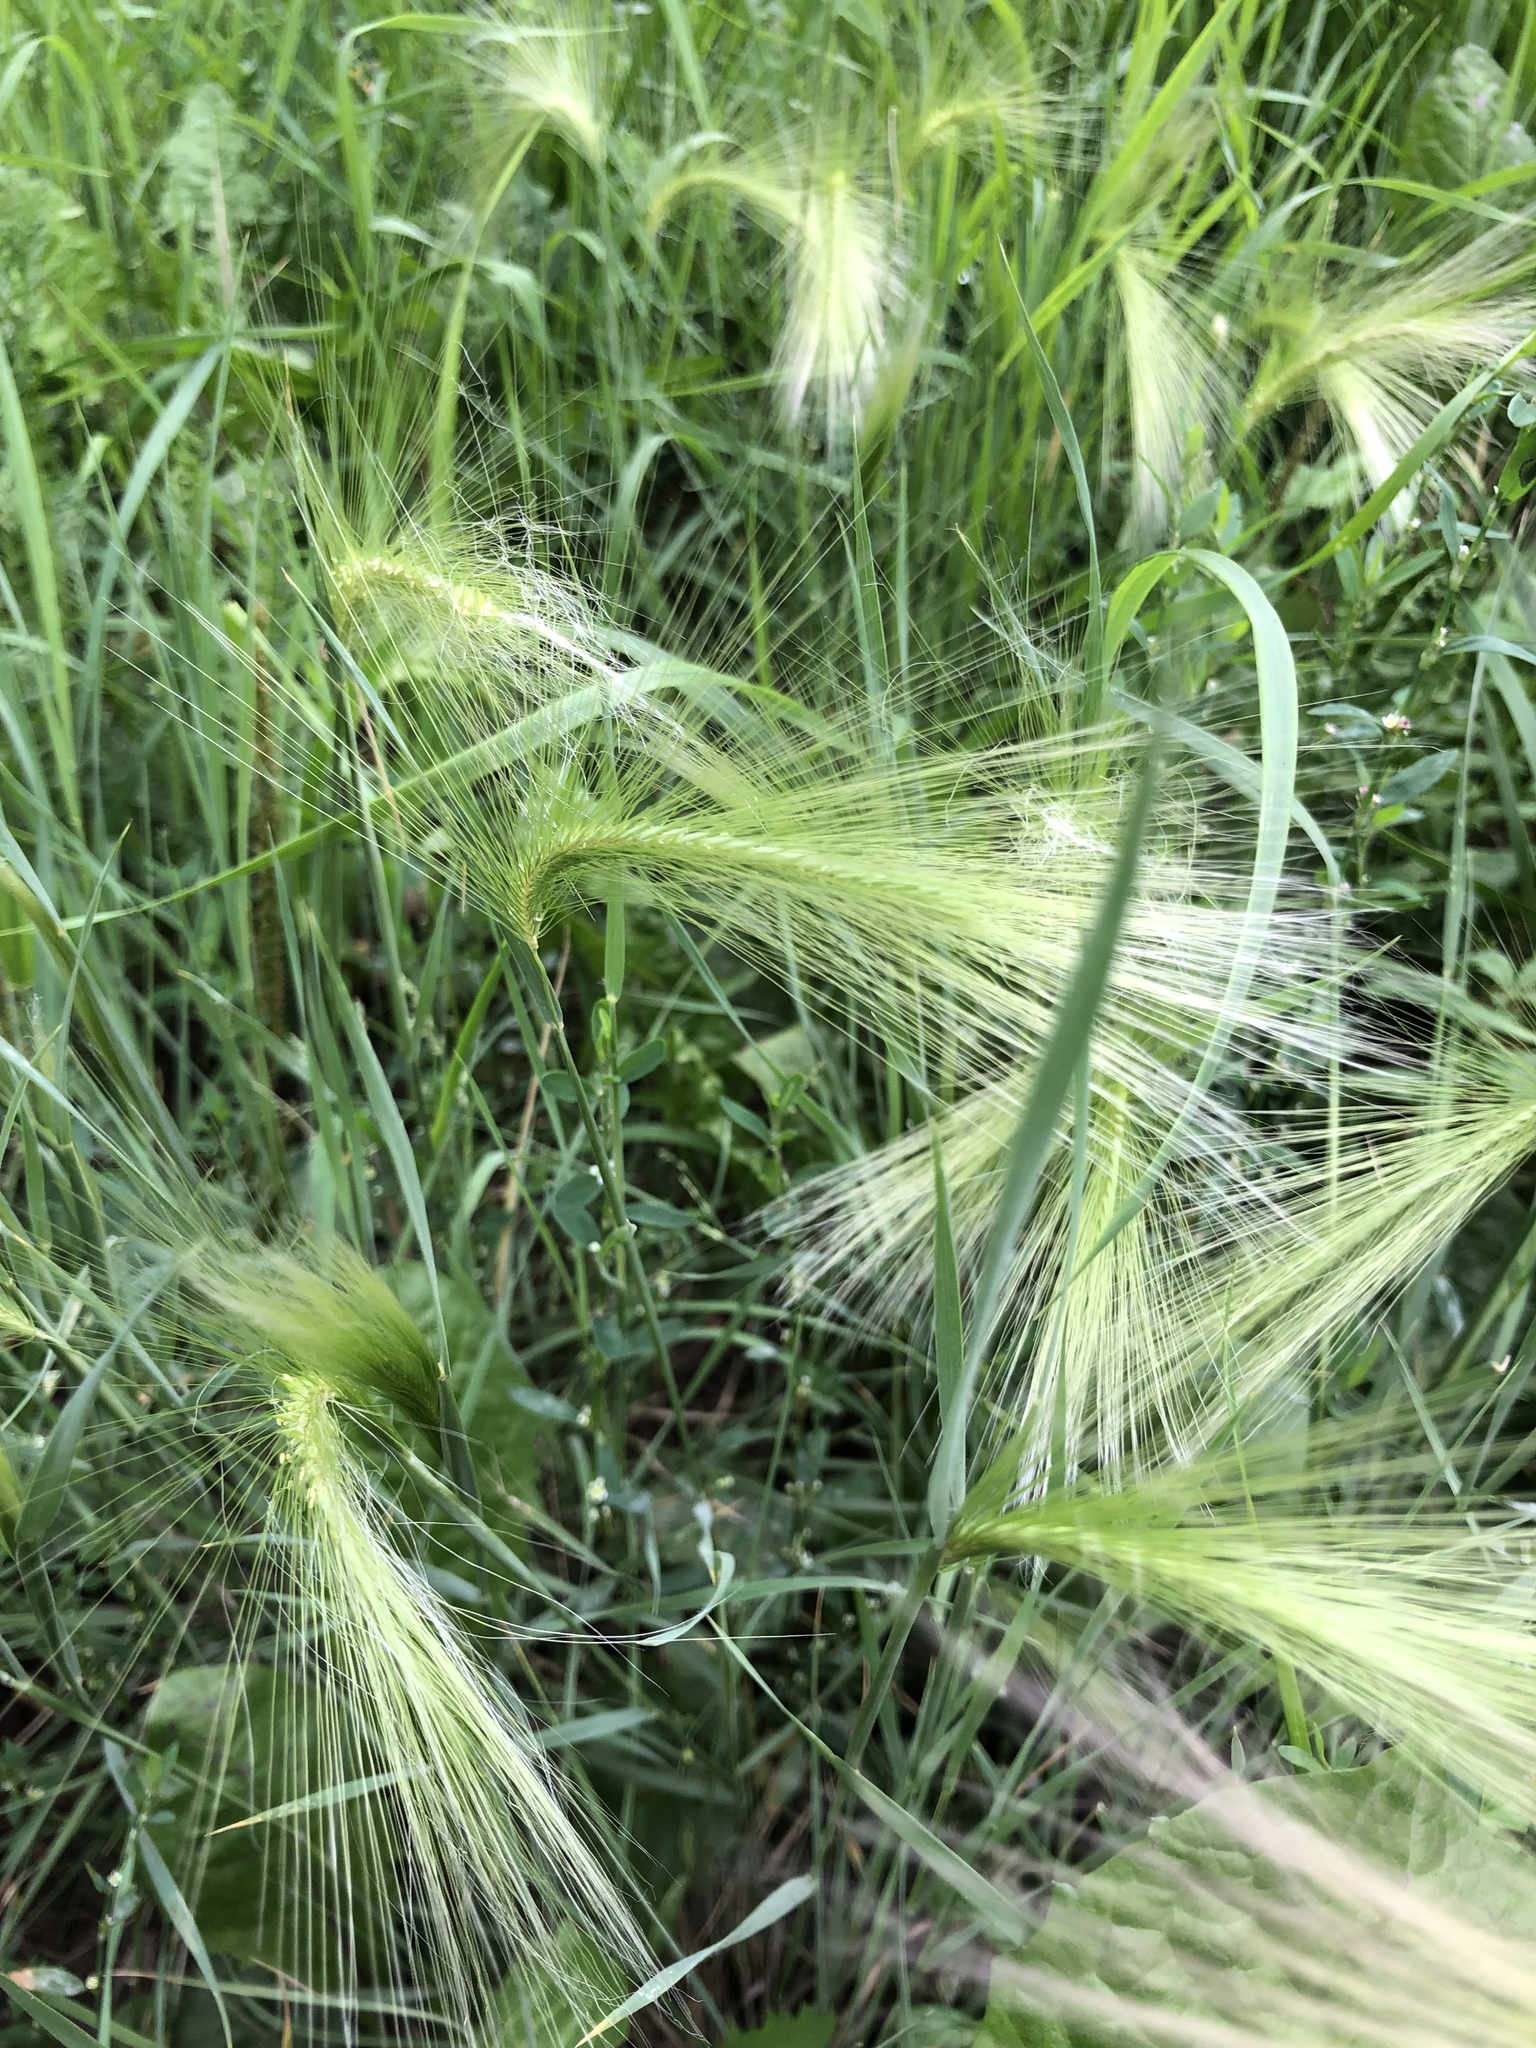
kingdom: Plantae
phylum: Tracheophyta
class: Liliopsida
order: Poales
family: Poaceae
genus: Hordeum
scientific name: Hordeum jubatum
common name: Foxtail barley
